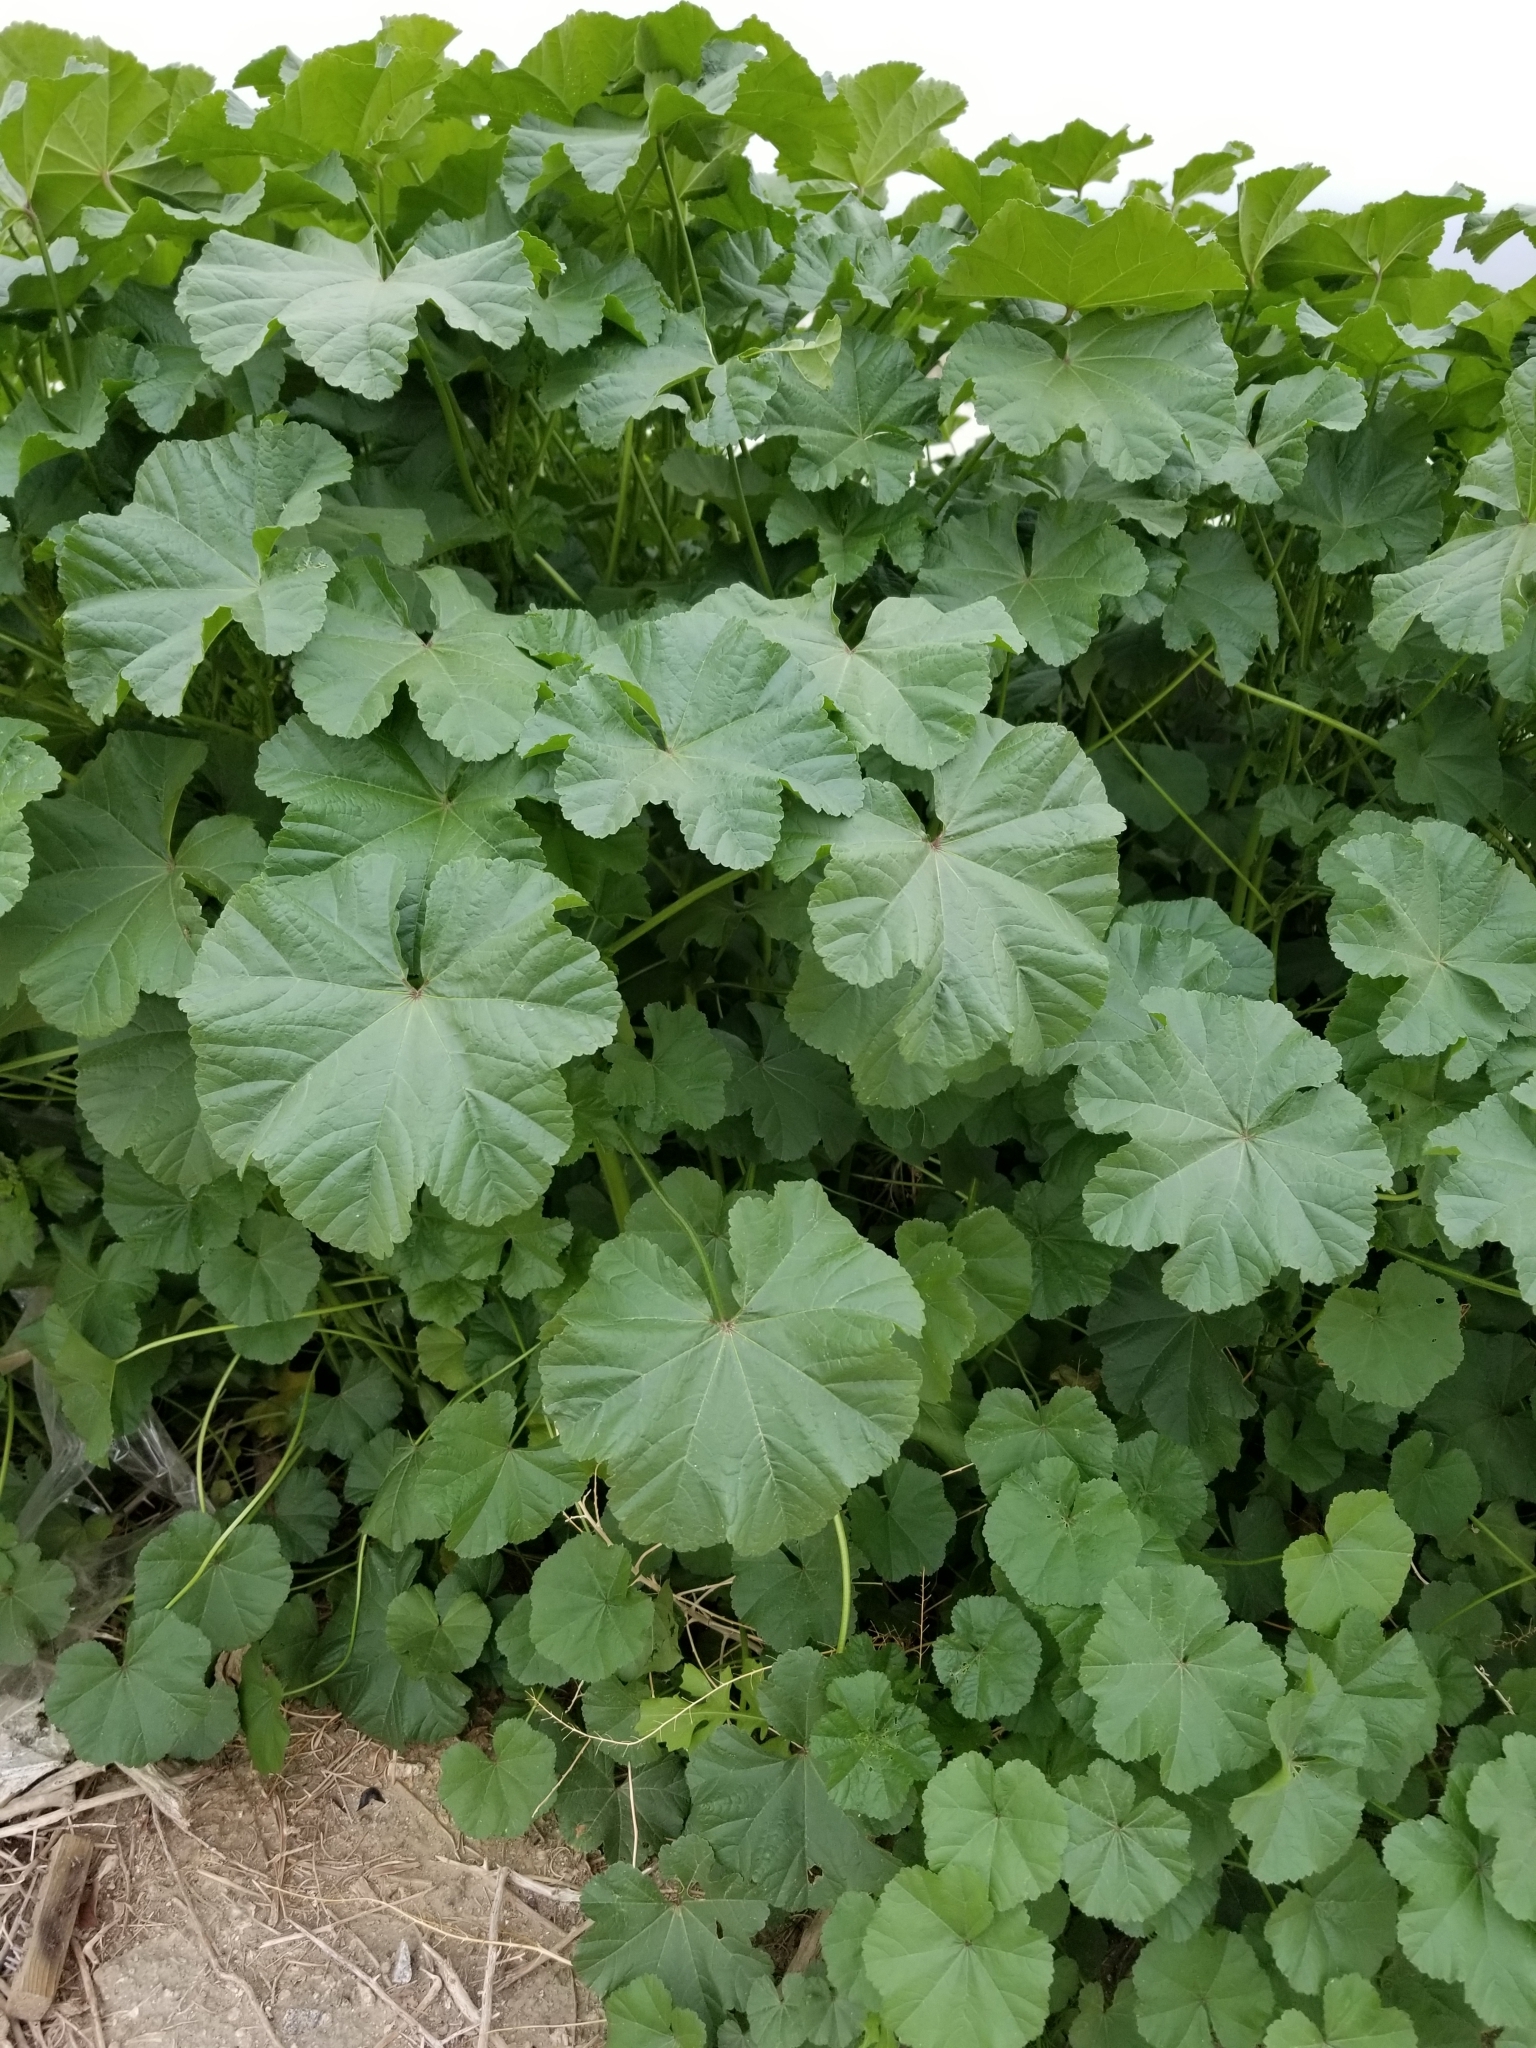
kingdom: Plantae
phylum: Tracheophyta
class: Magnoliopsida
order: Malvales
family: Malvaceae
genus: Malva
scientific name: Malva
